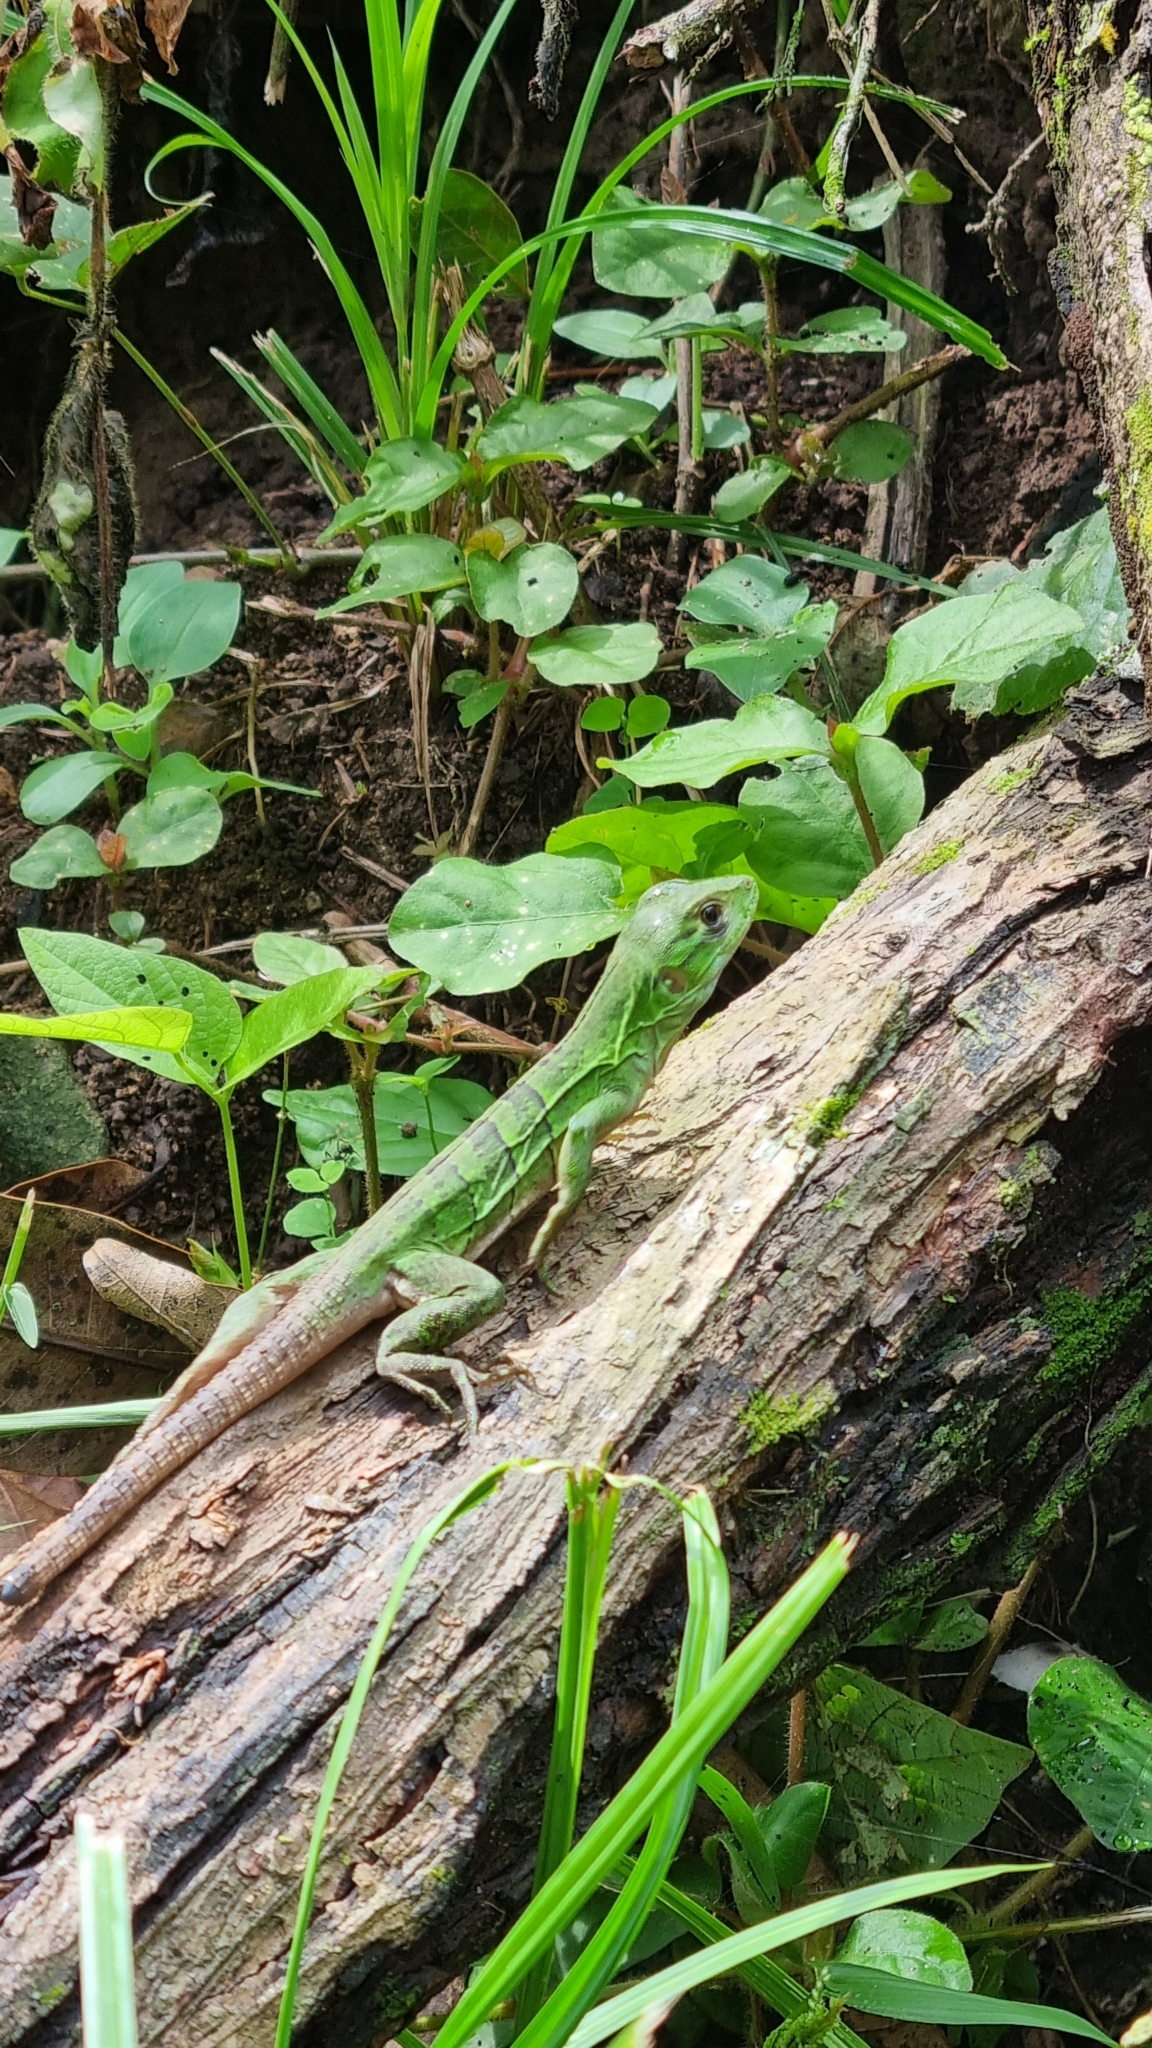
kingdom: Animalia
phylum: Chordata
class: Squamata
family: Iguanidae
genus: Ctenosaura
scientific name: Ctenosaura similis
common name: Black spiny-tailed iguana
